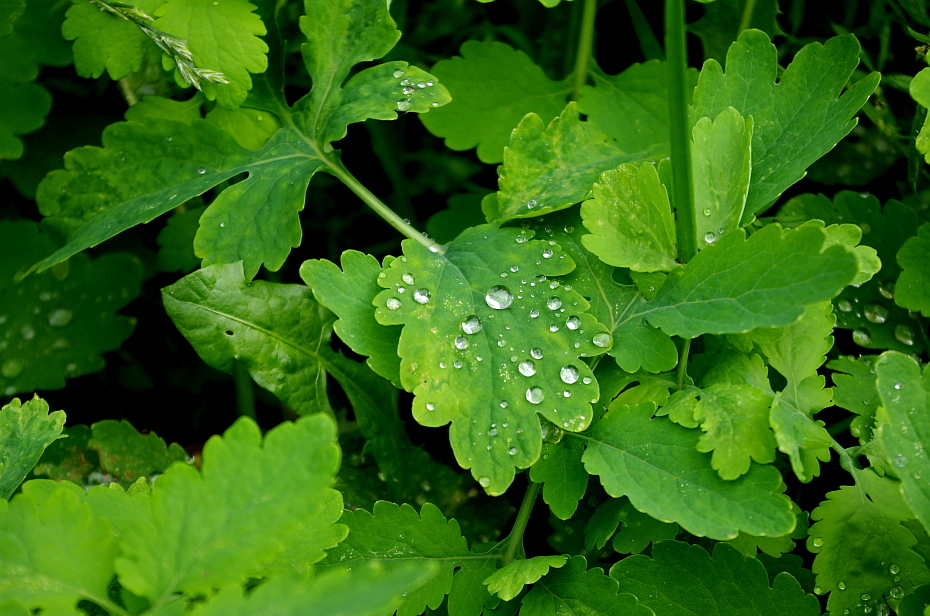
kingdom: Plantae
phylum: Tracheophyta
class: Magnoliopsida
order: Ranunculales
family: Papaveraceae
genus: Chelidonium
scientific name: Chelidonium majus
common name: Greater celandine
